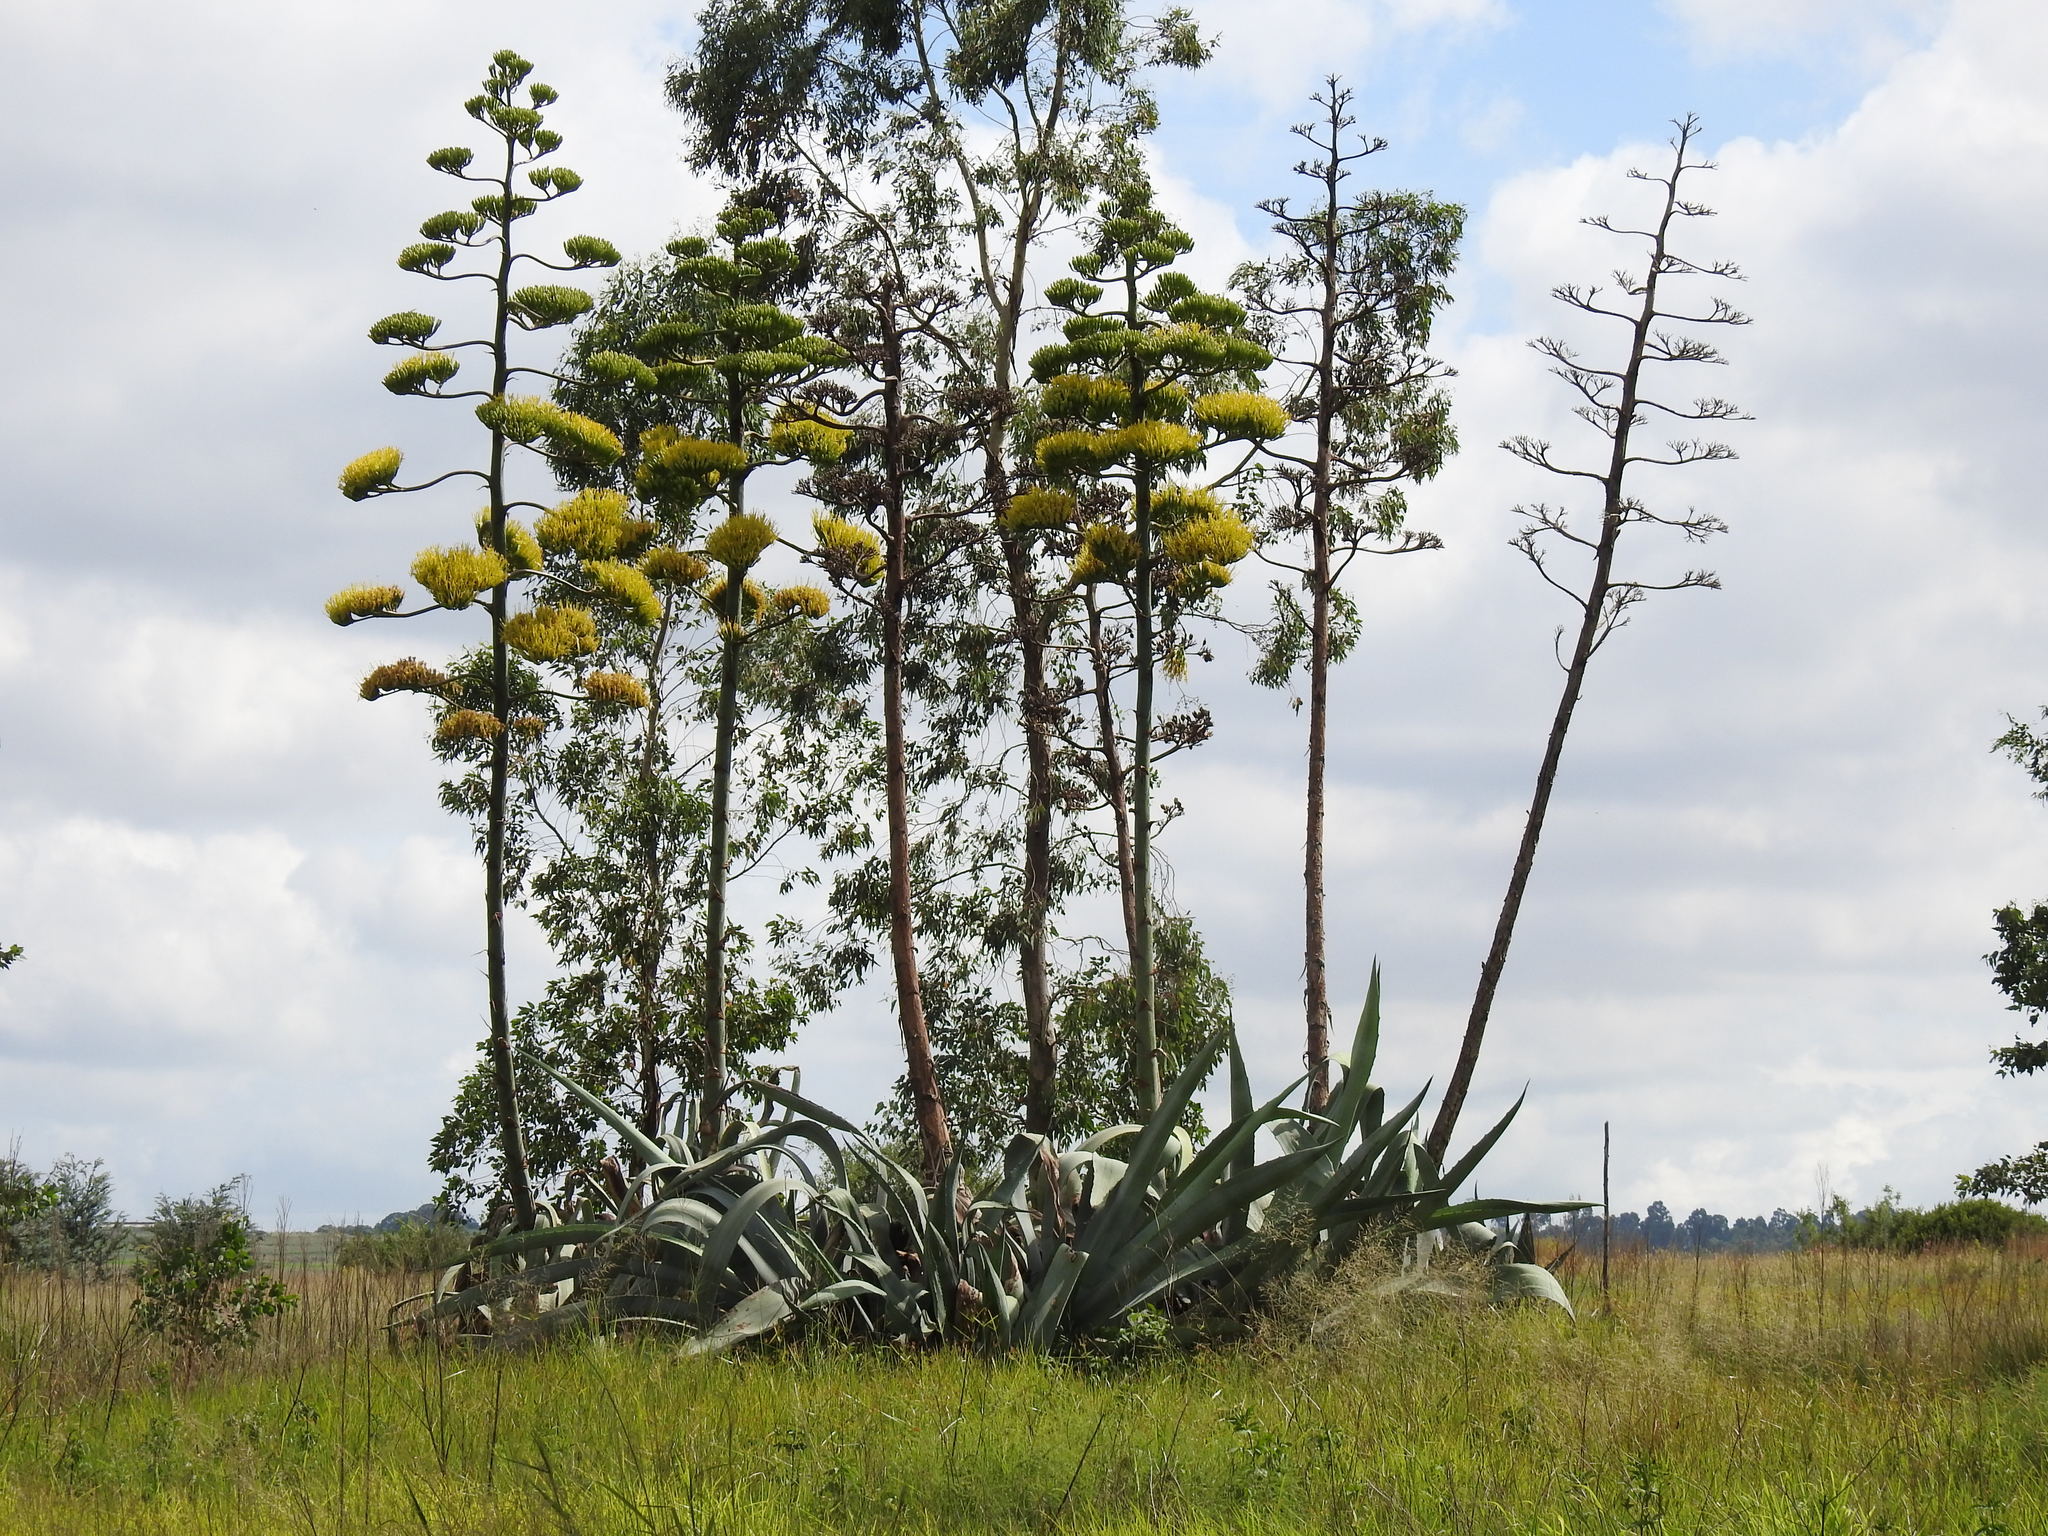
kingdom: Plantae
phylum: Tracheophyta
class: Liliopsida
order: Asparagales
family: Asparagaceae
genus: Agave
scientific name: Agave americana
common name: Centuryplant
